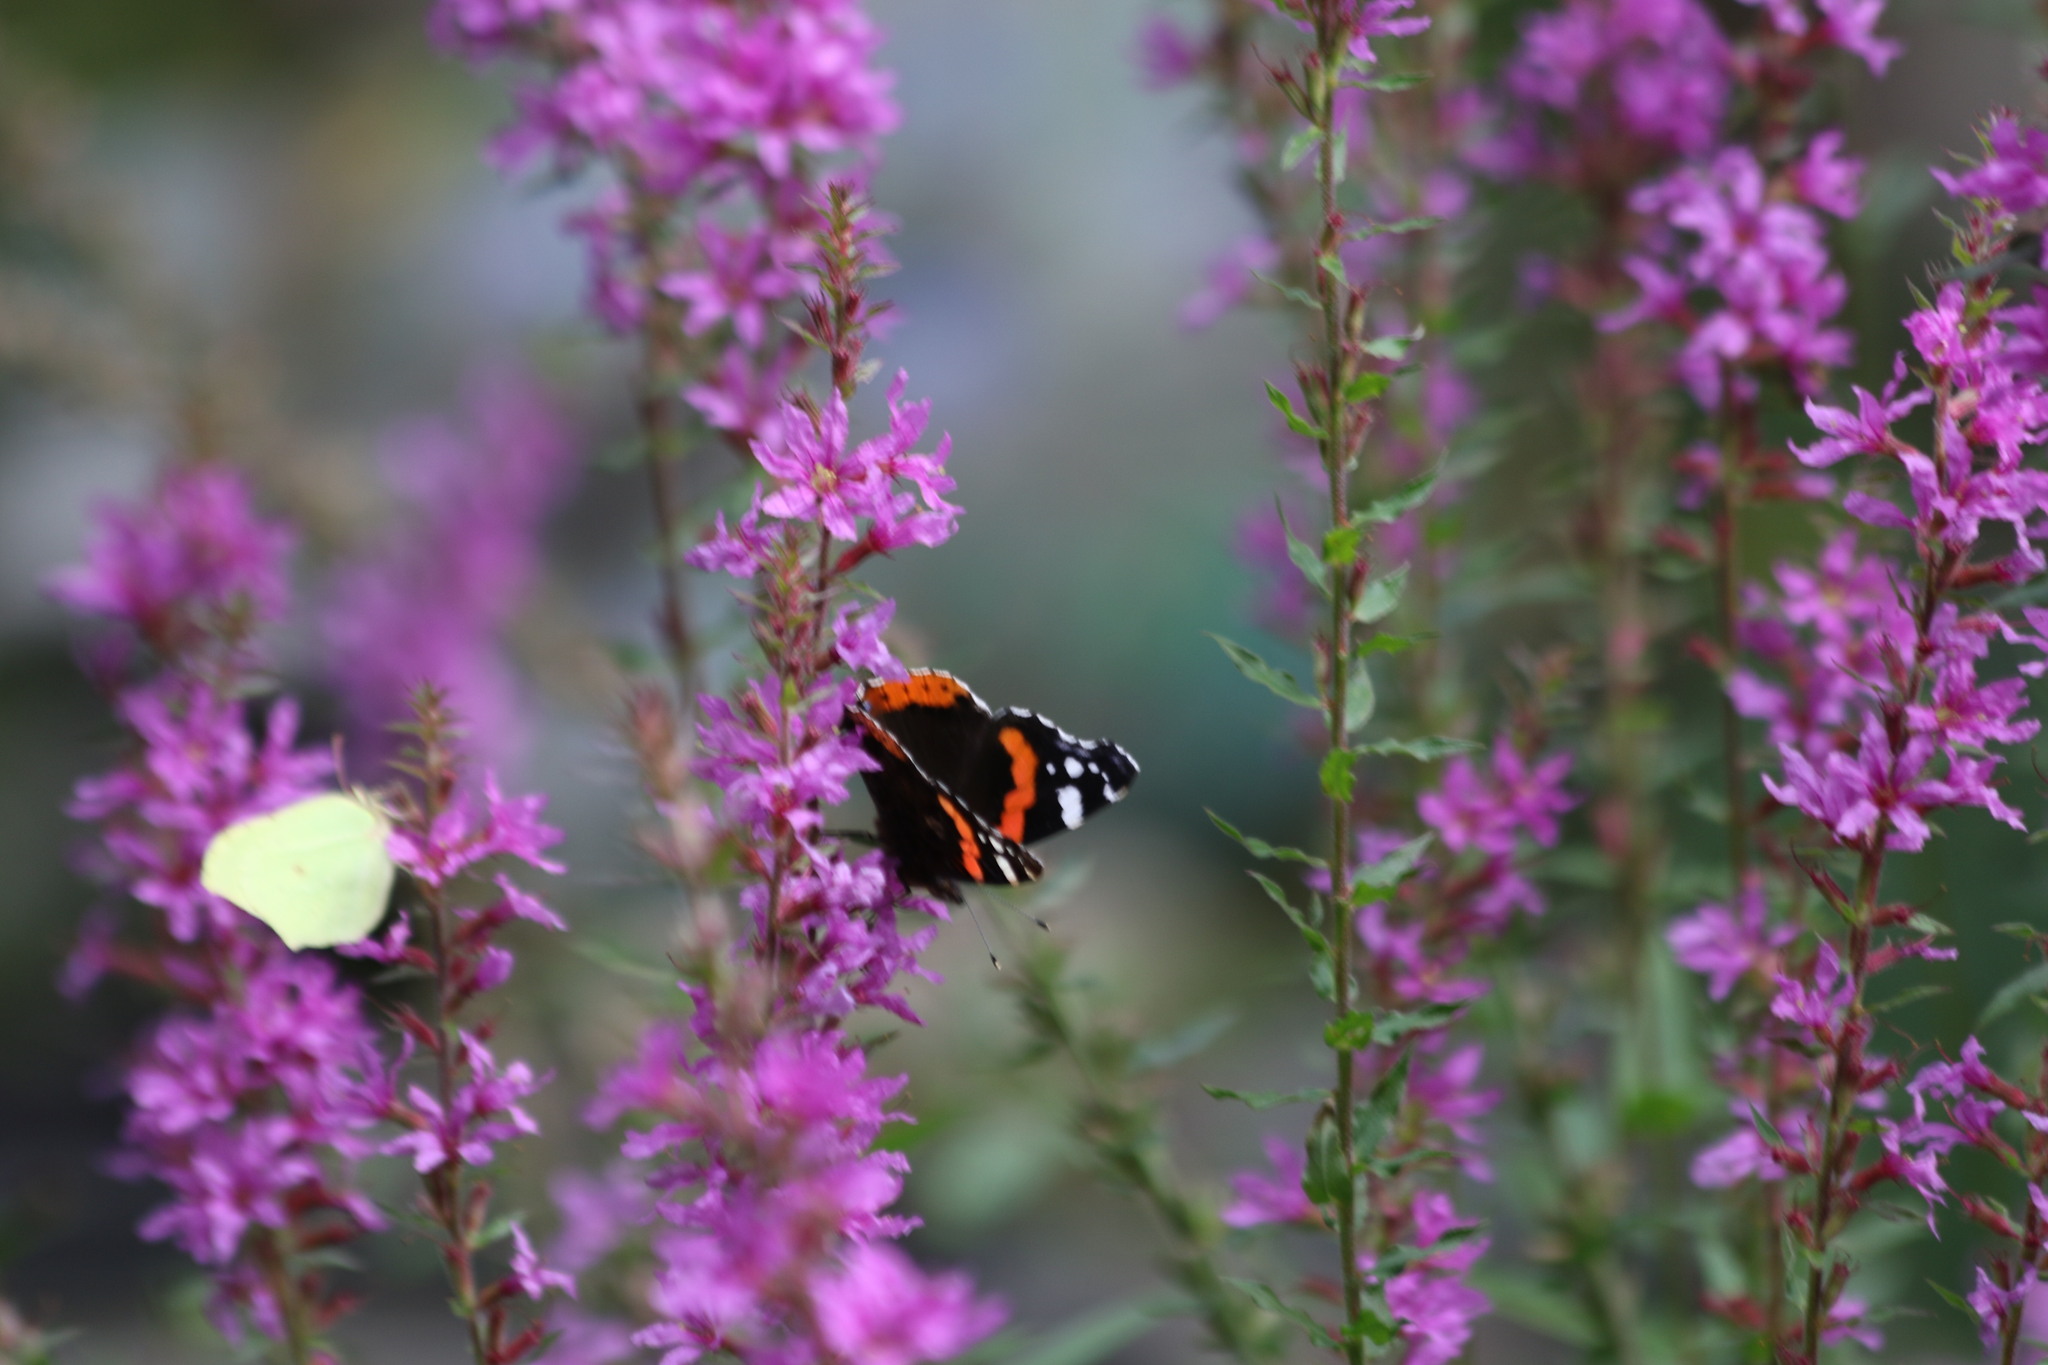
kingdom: Animalia
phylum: Arthropoda
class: Insecta
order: Lepidoptera
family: Pieridae
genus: Gonepteryx
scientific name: Gonepteryx rhamni
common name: Brimstone
